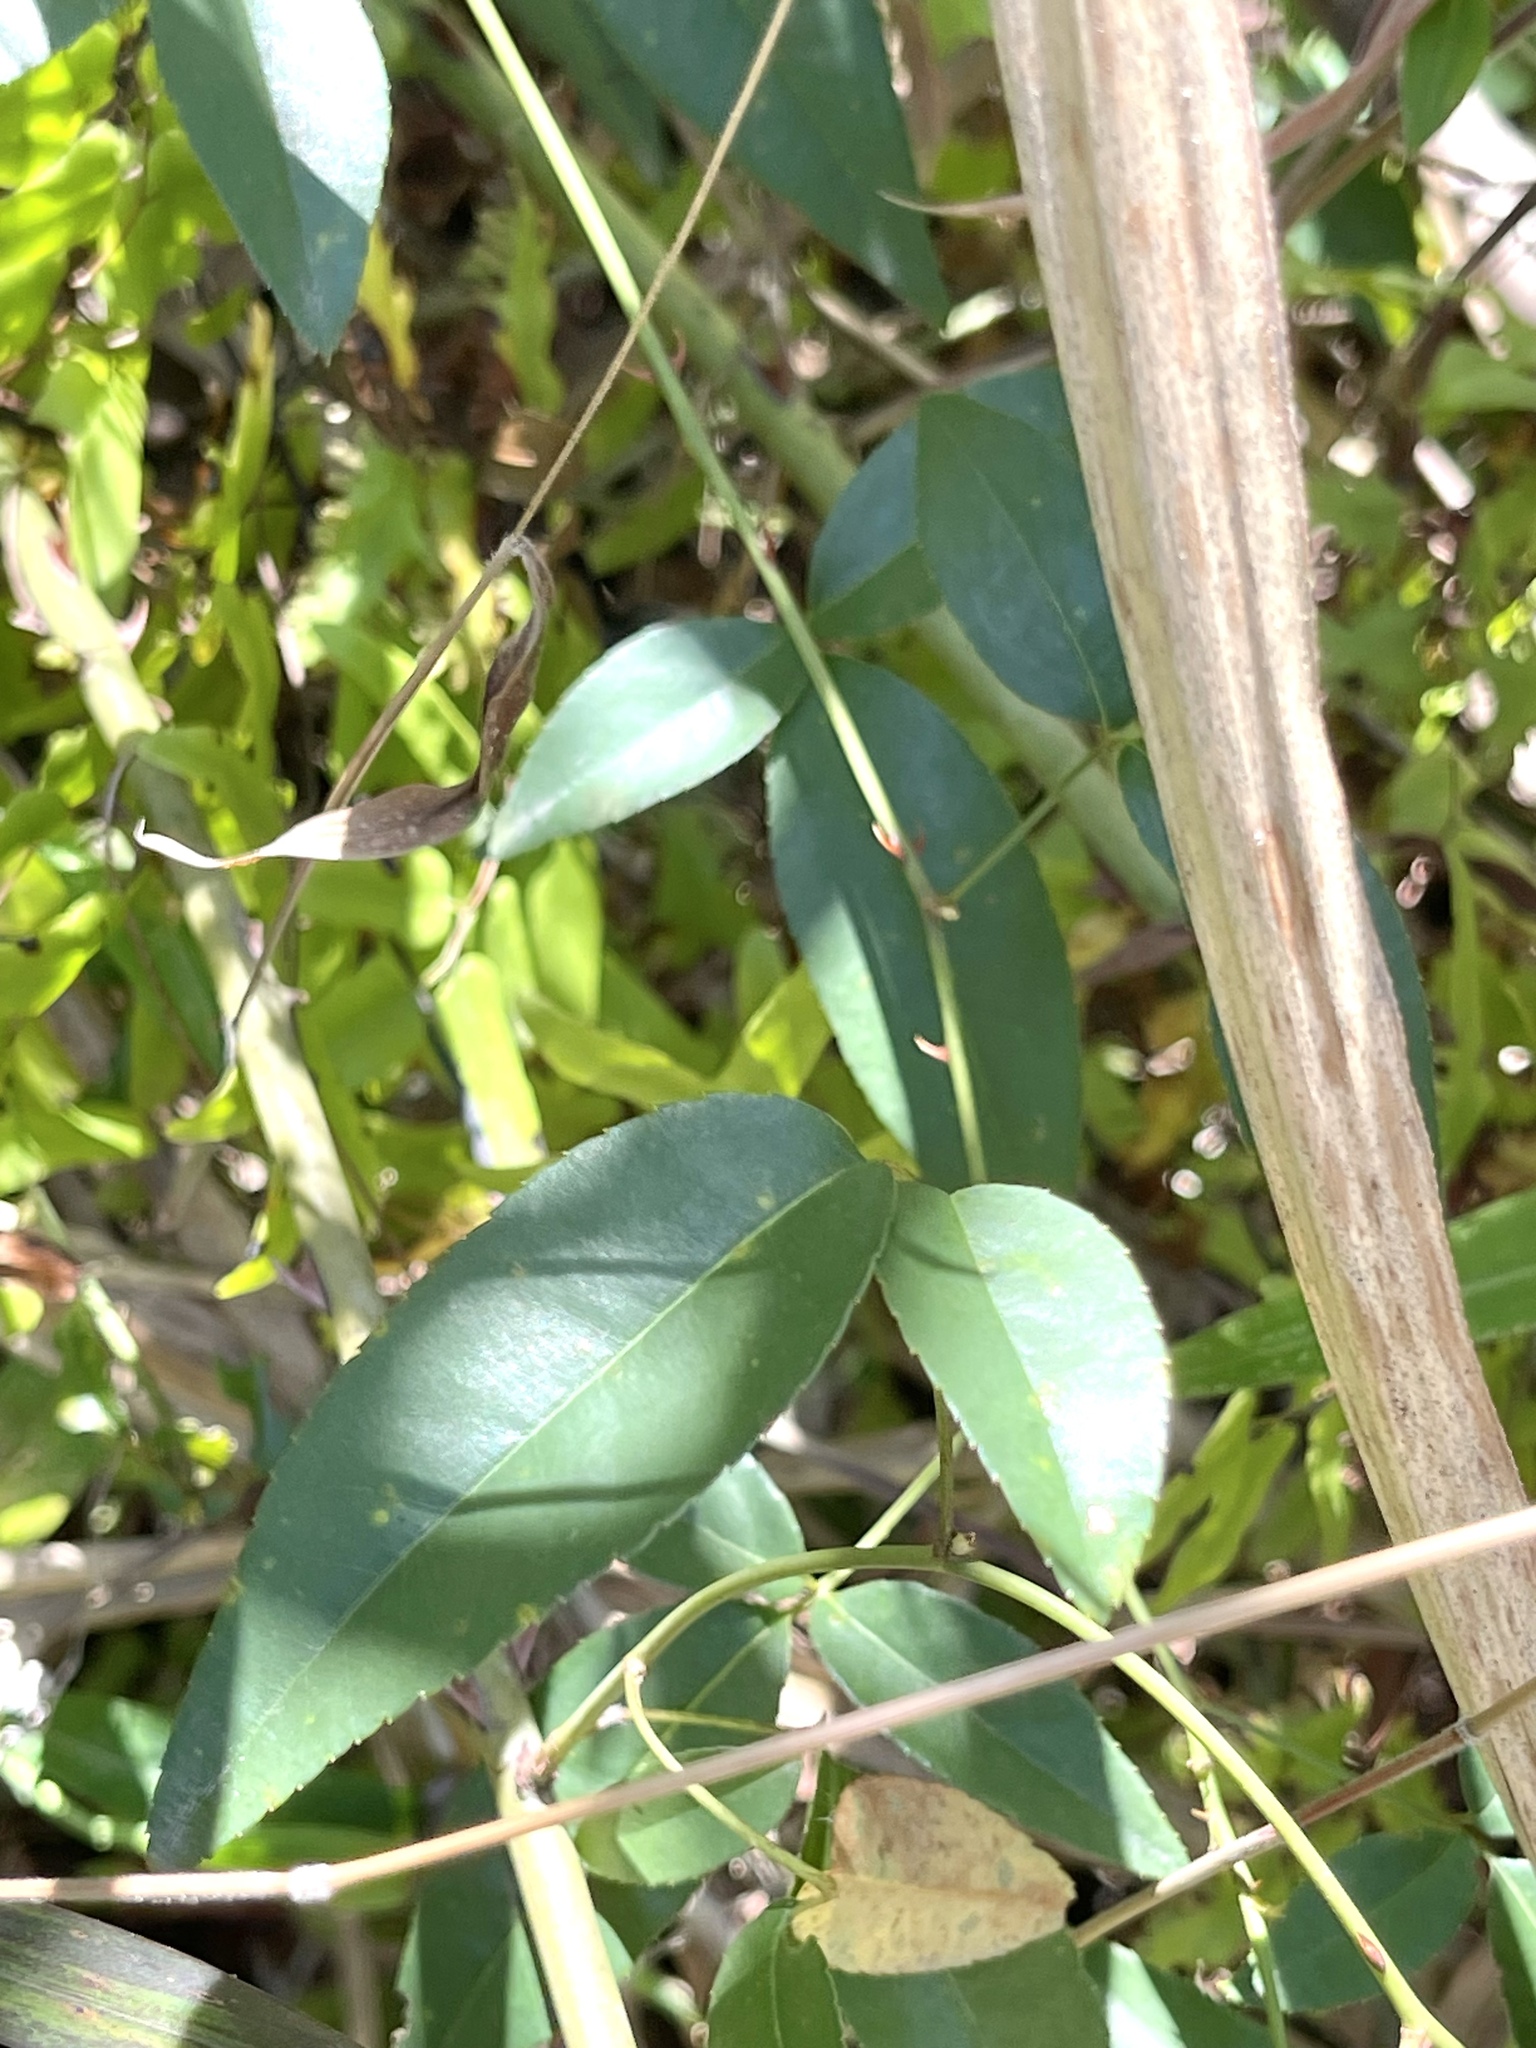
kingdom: Plantae
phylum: Tracheophyta
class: Magnoliopsida
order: Rosales
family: Rosaceae
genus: Rosa
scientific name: Rosa laevigata
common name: Cherokee rose
